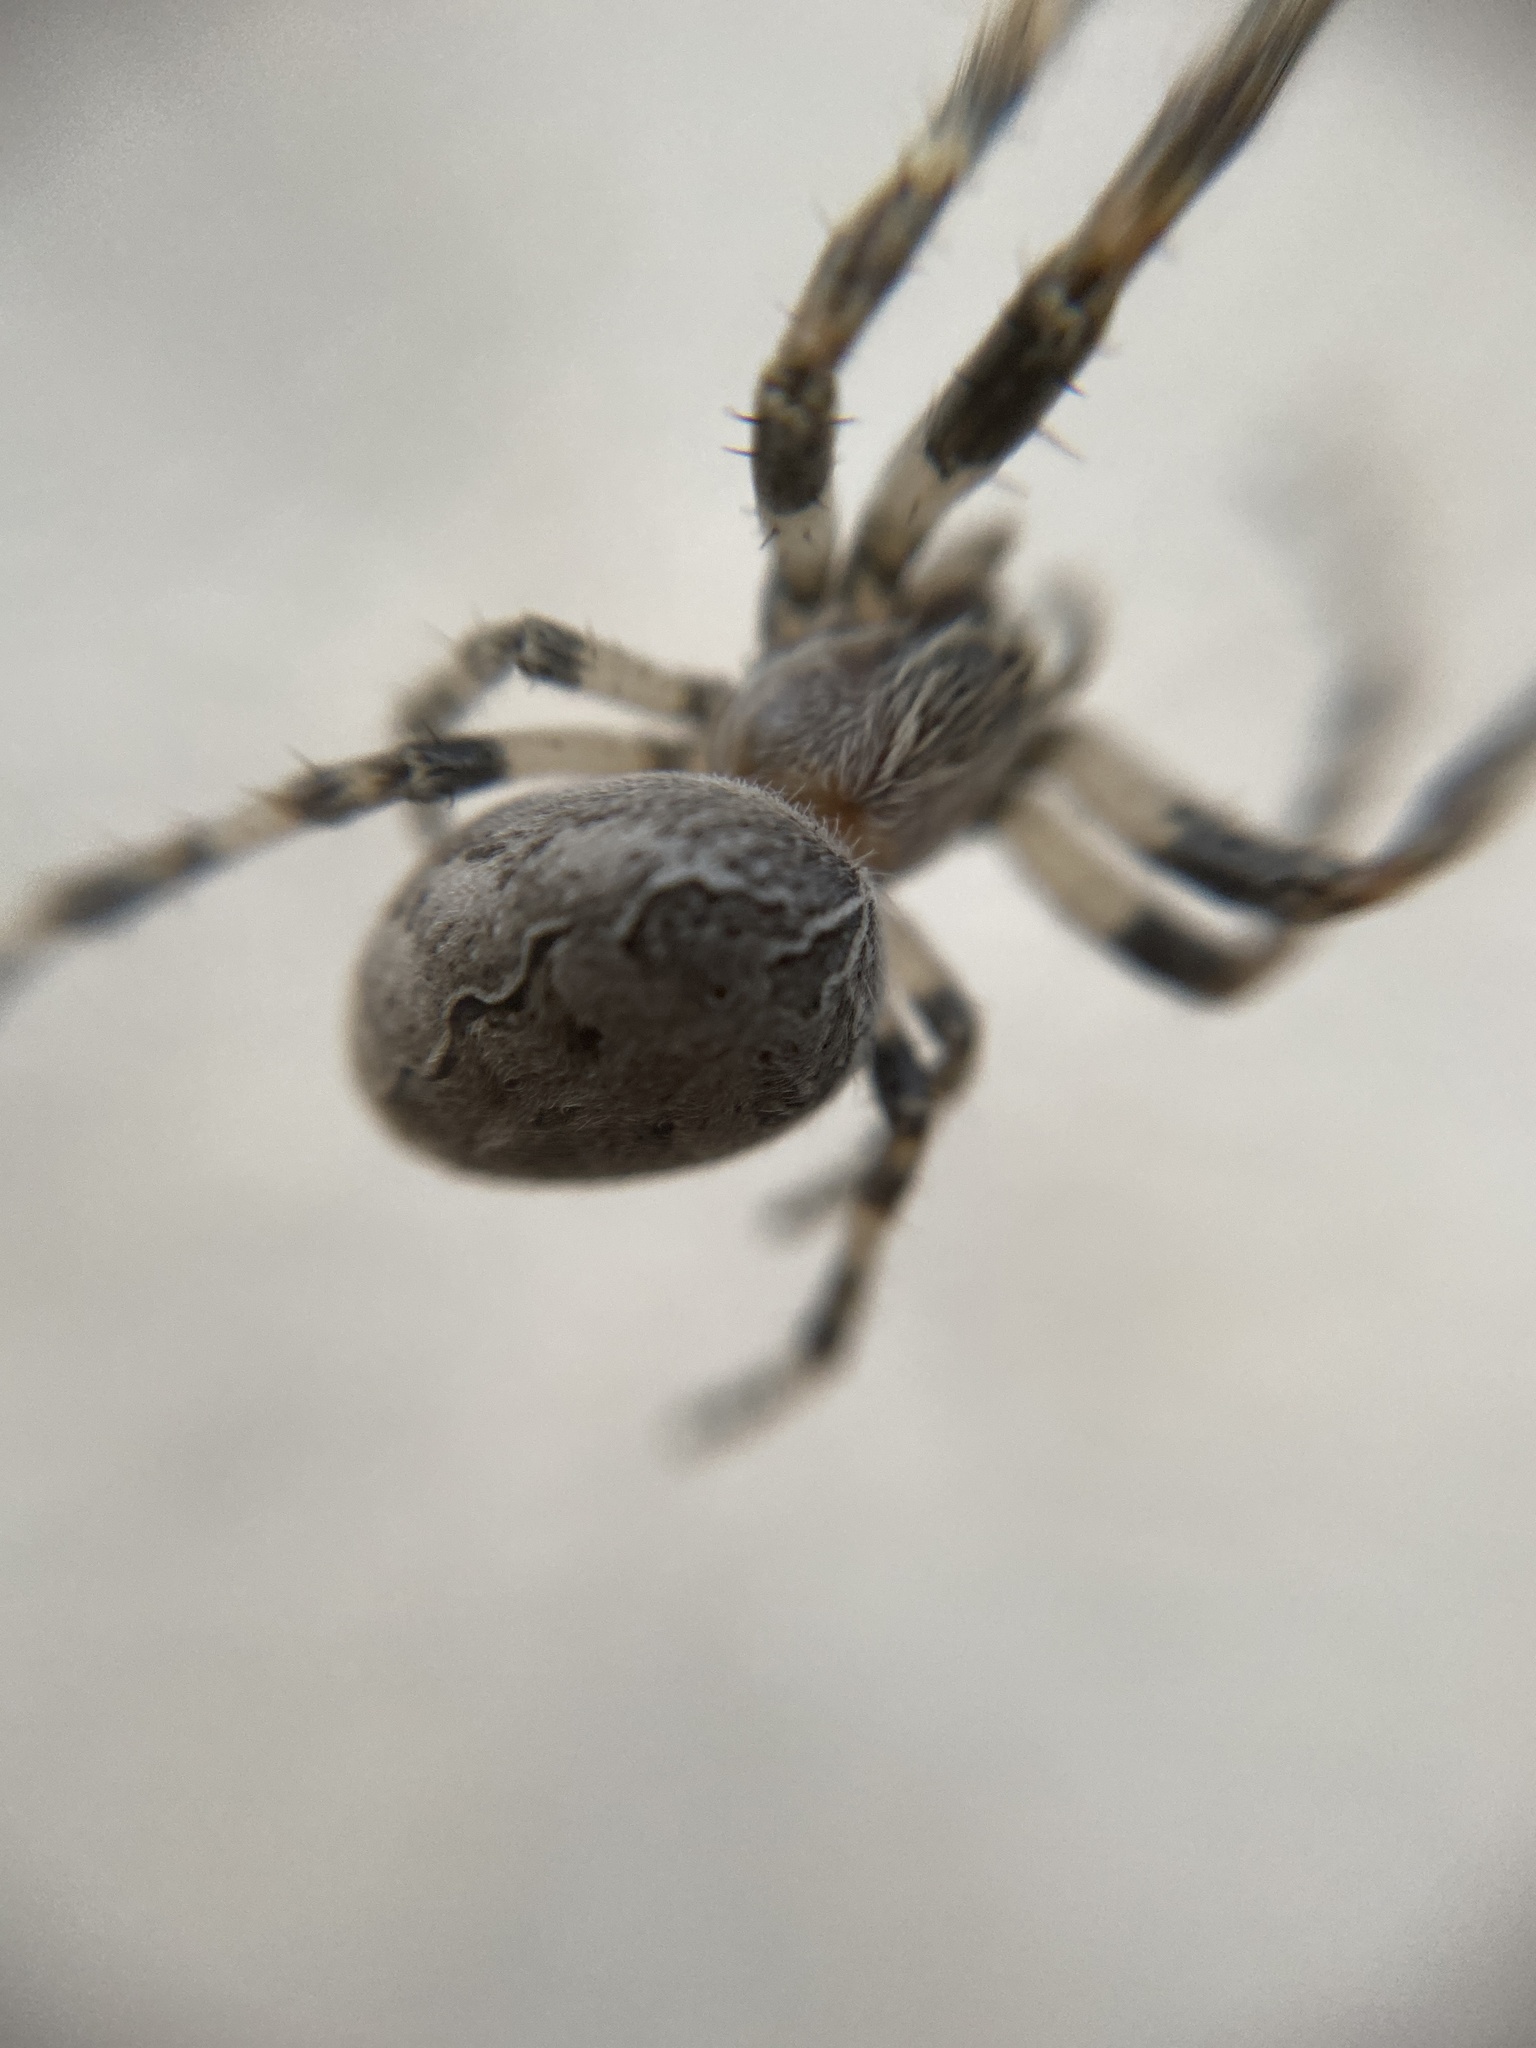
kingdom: Animalia
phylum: Arthropoda
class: Arachnida
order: Araneae
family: Araneidae
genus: Larinioides
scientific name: Larinioides sclopetarius
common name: Bridge orbweaver
